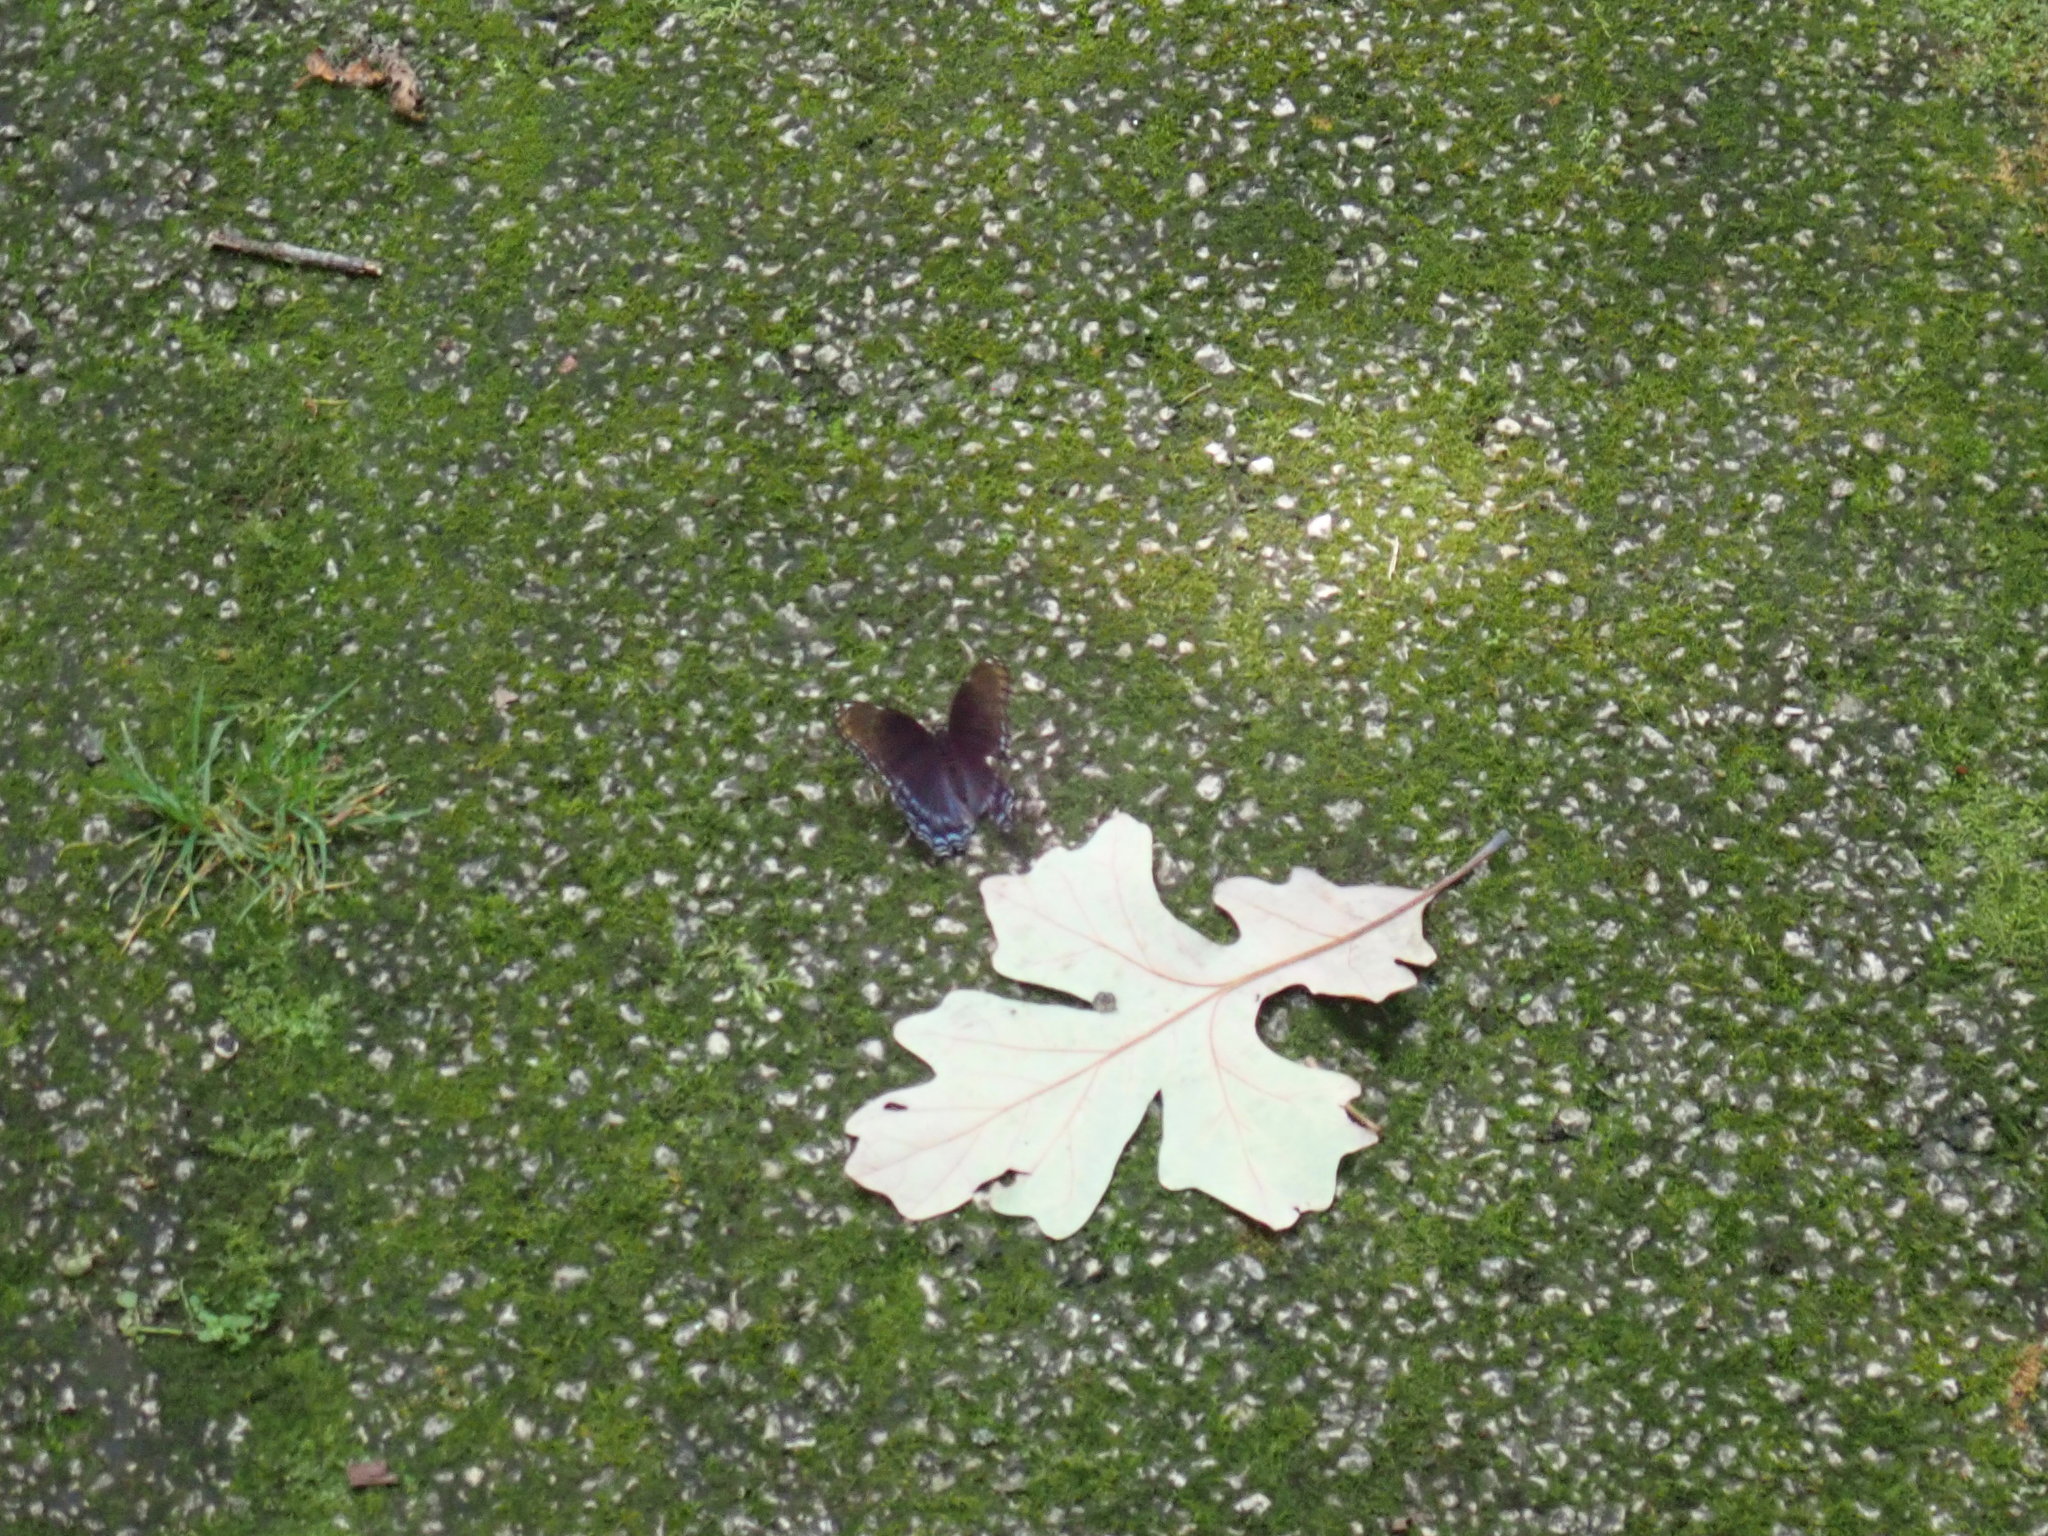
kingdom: Animalia
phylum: Arthropoda
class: Insecta
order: Lepidoptera
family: Nymphalidae
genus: Limenitis
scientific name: Limenitis astyanax
